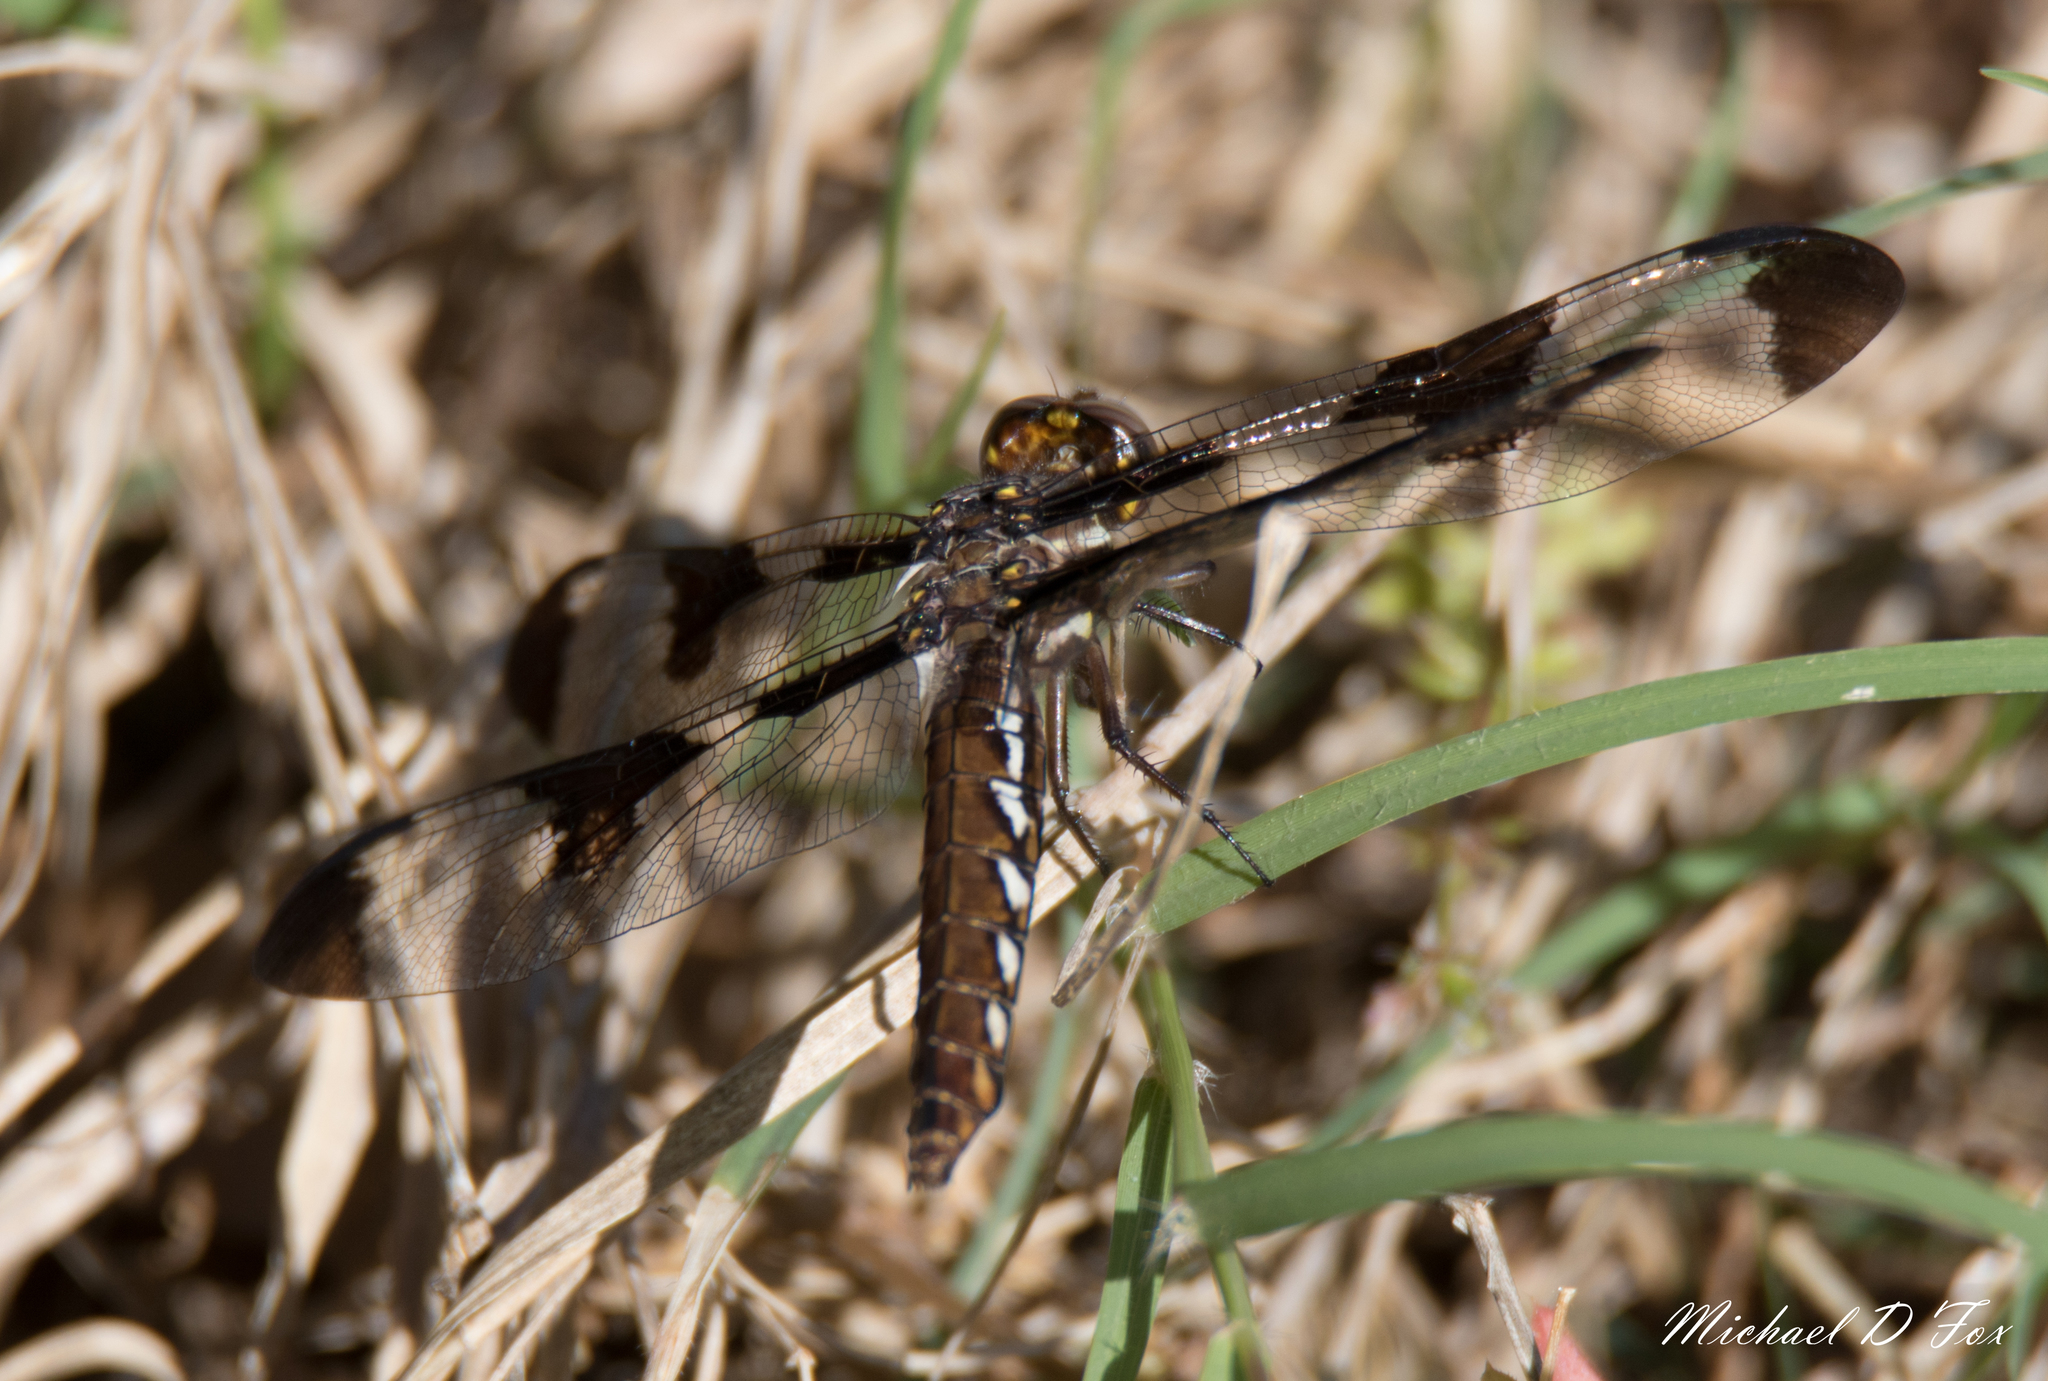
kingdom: Animalia
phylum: Arthropoda
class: Insecta
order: Odonata
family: Libellulidae
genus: Plathemis
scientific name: Plathemis lydia
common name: Common whitetail
